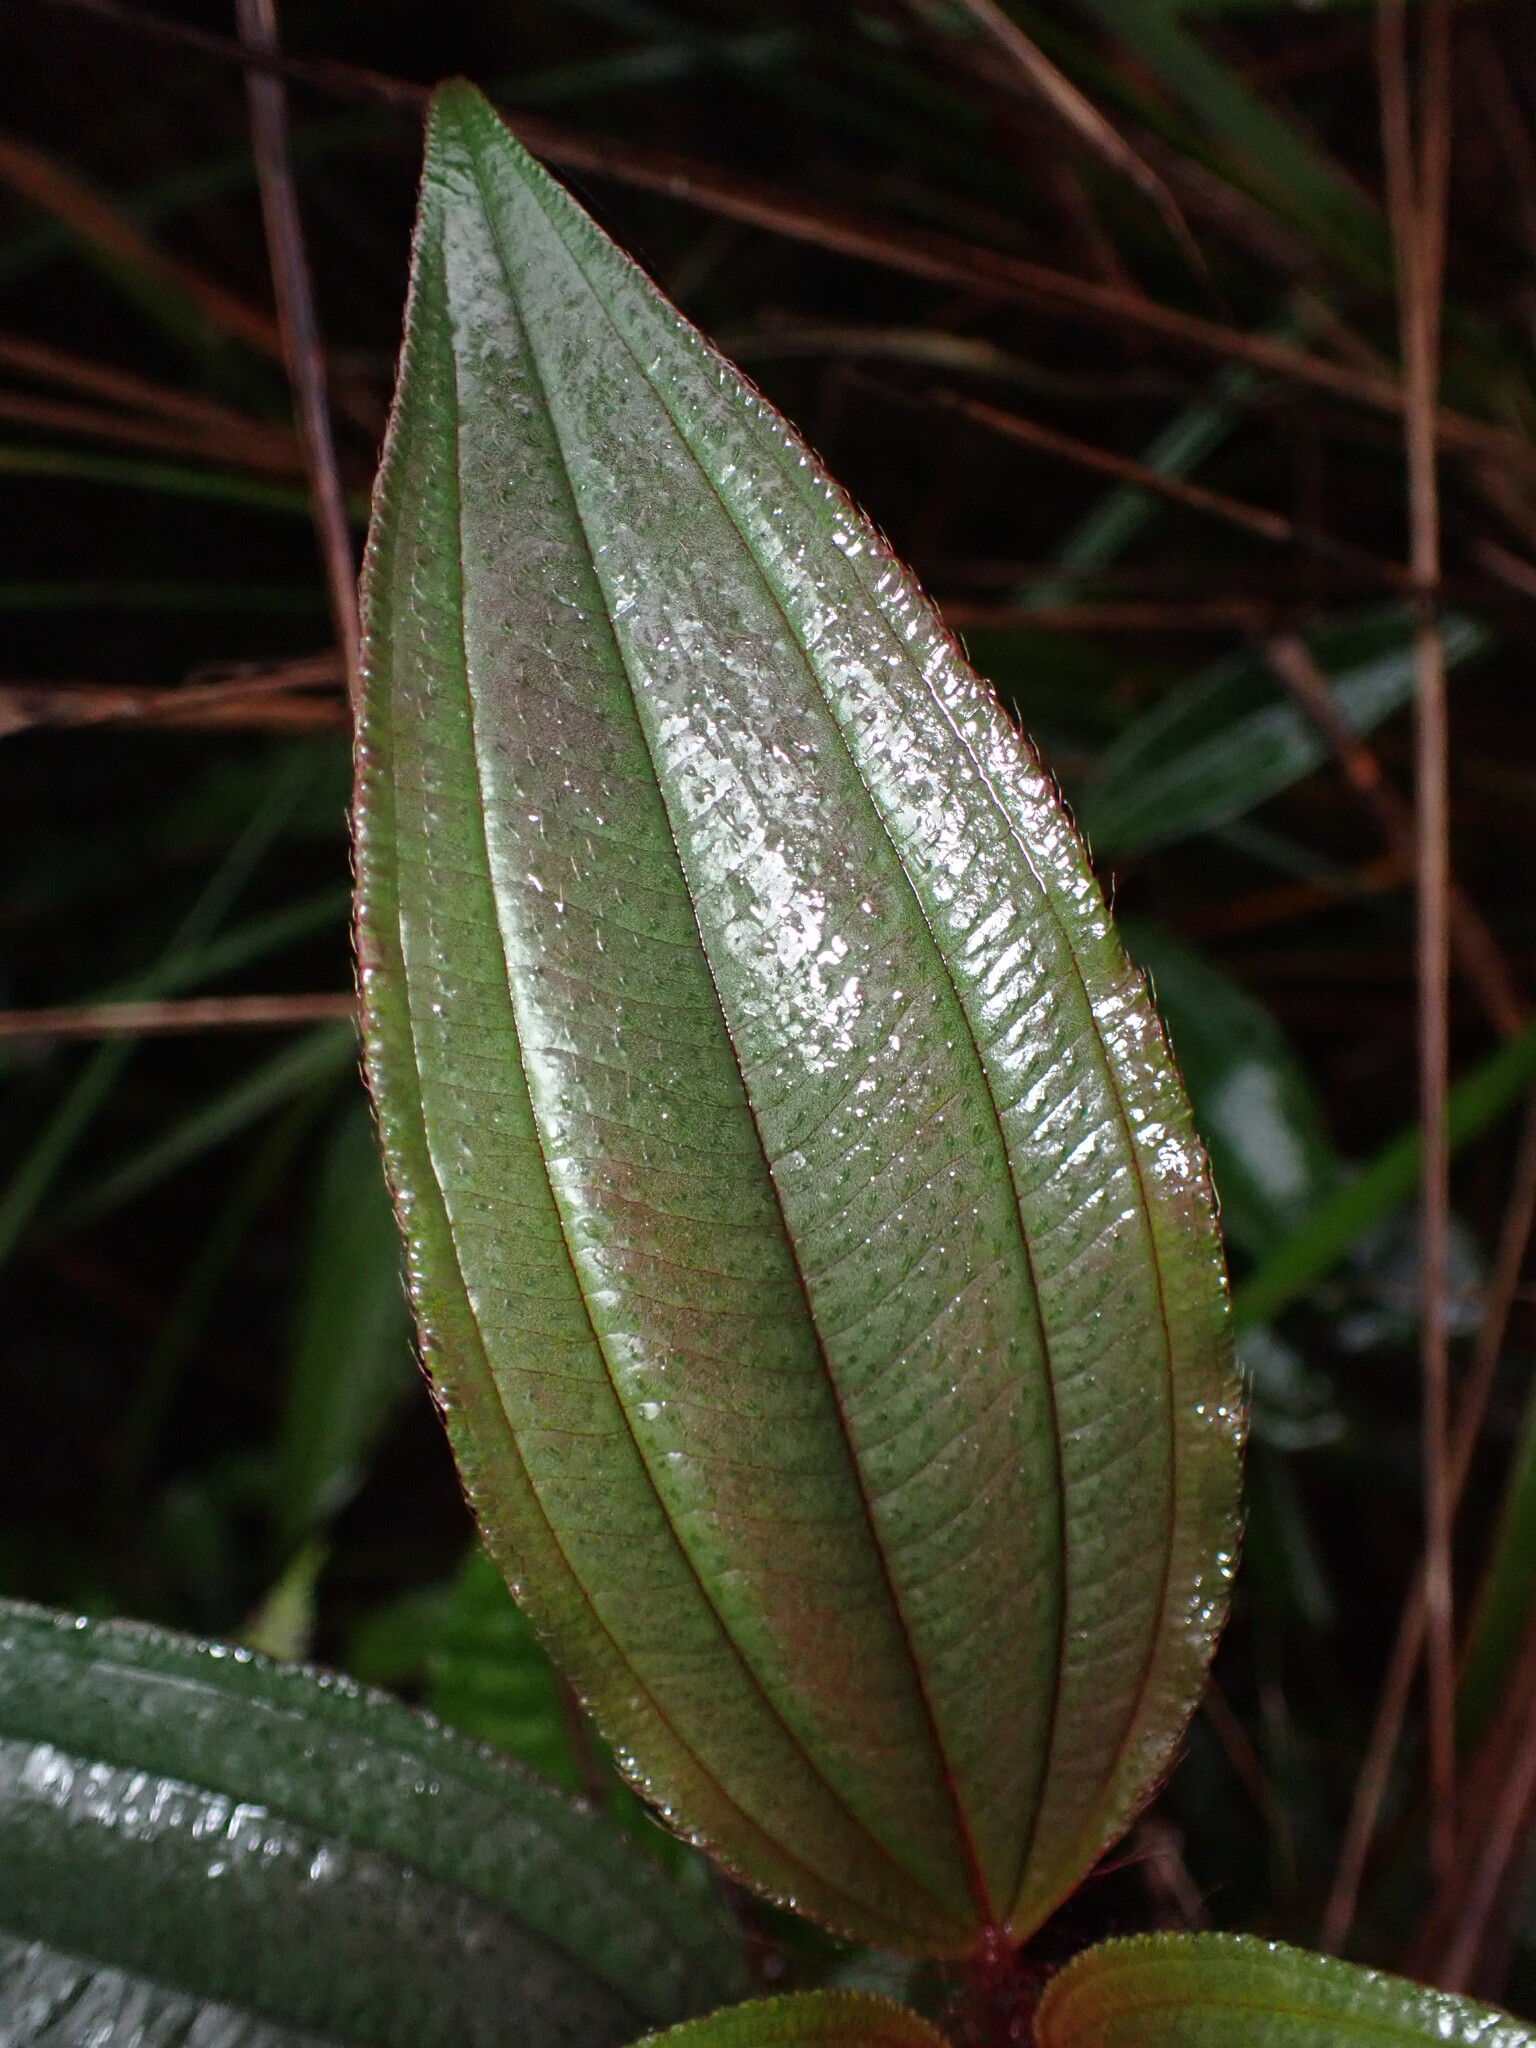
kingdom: Plantae
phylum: Tracheophyta
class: Magnoliopsida
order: Myrtales
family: Melastomataceae
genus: Melastoma
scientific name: Melastoma sanguineum
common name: Red melastome
